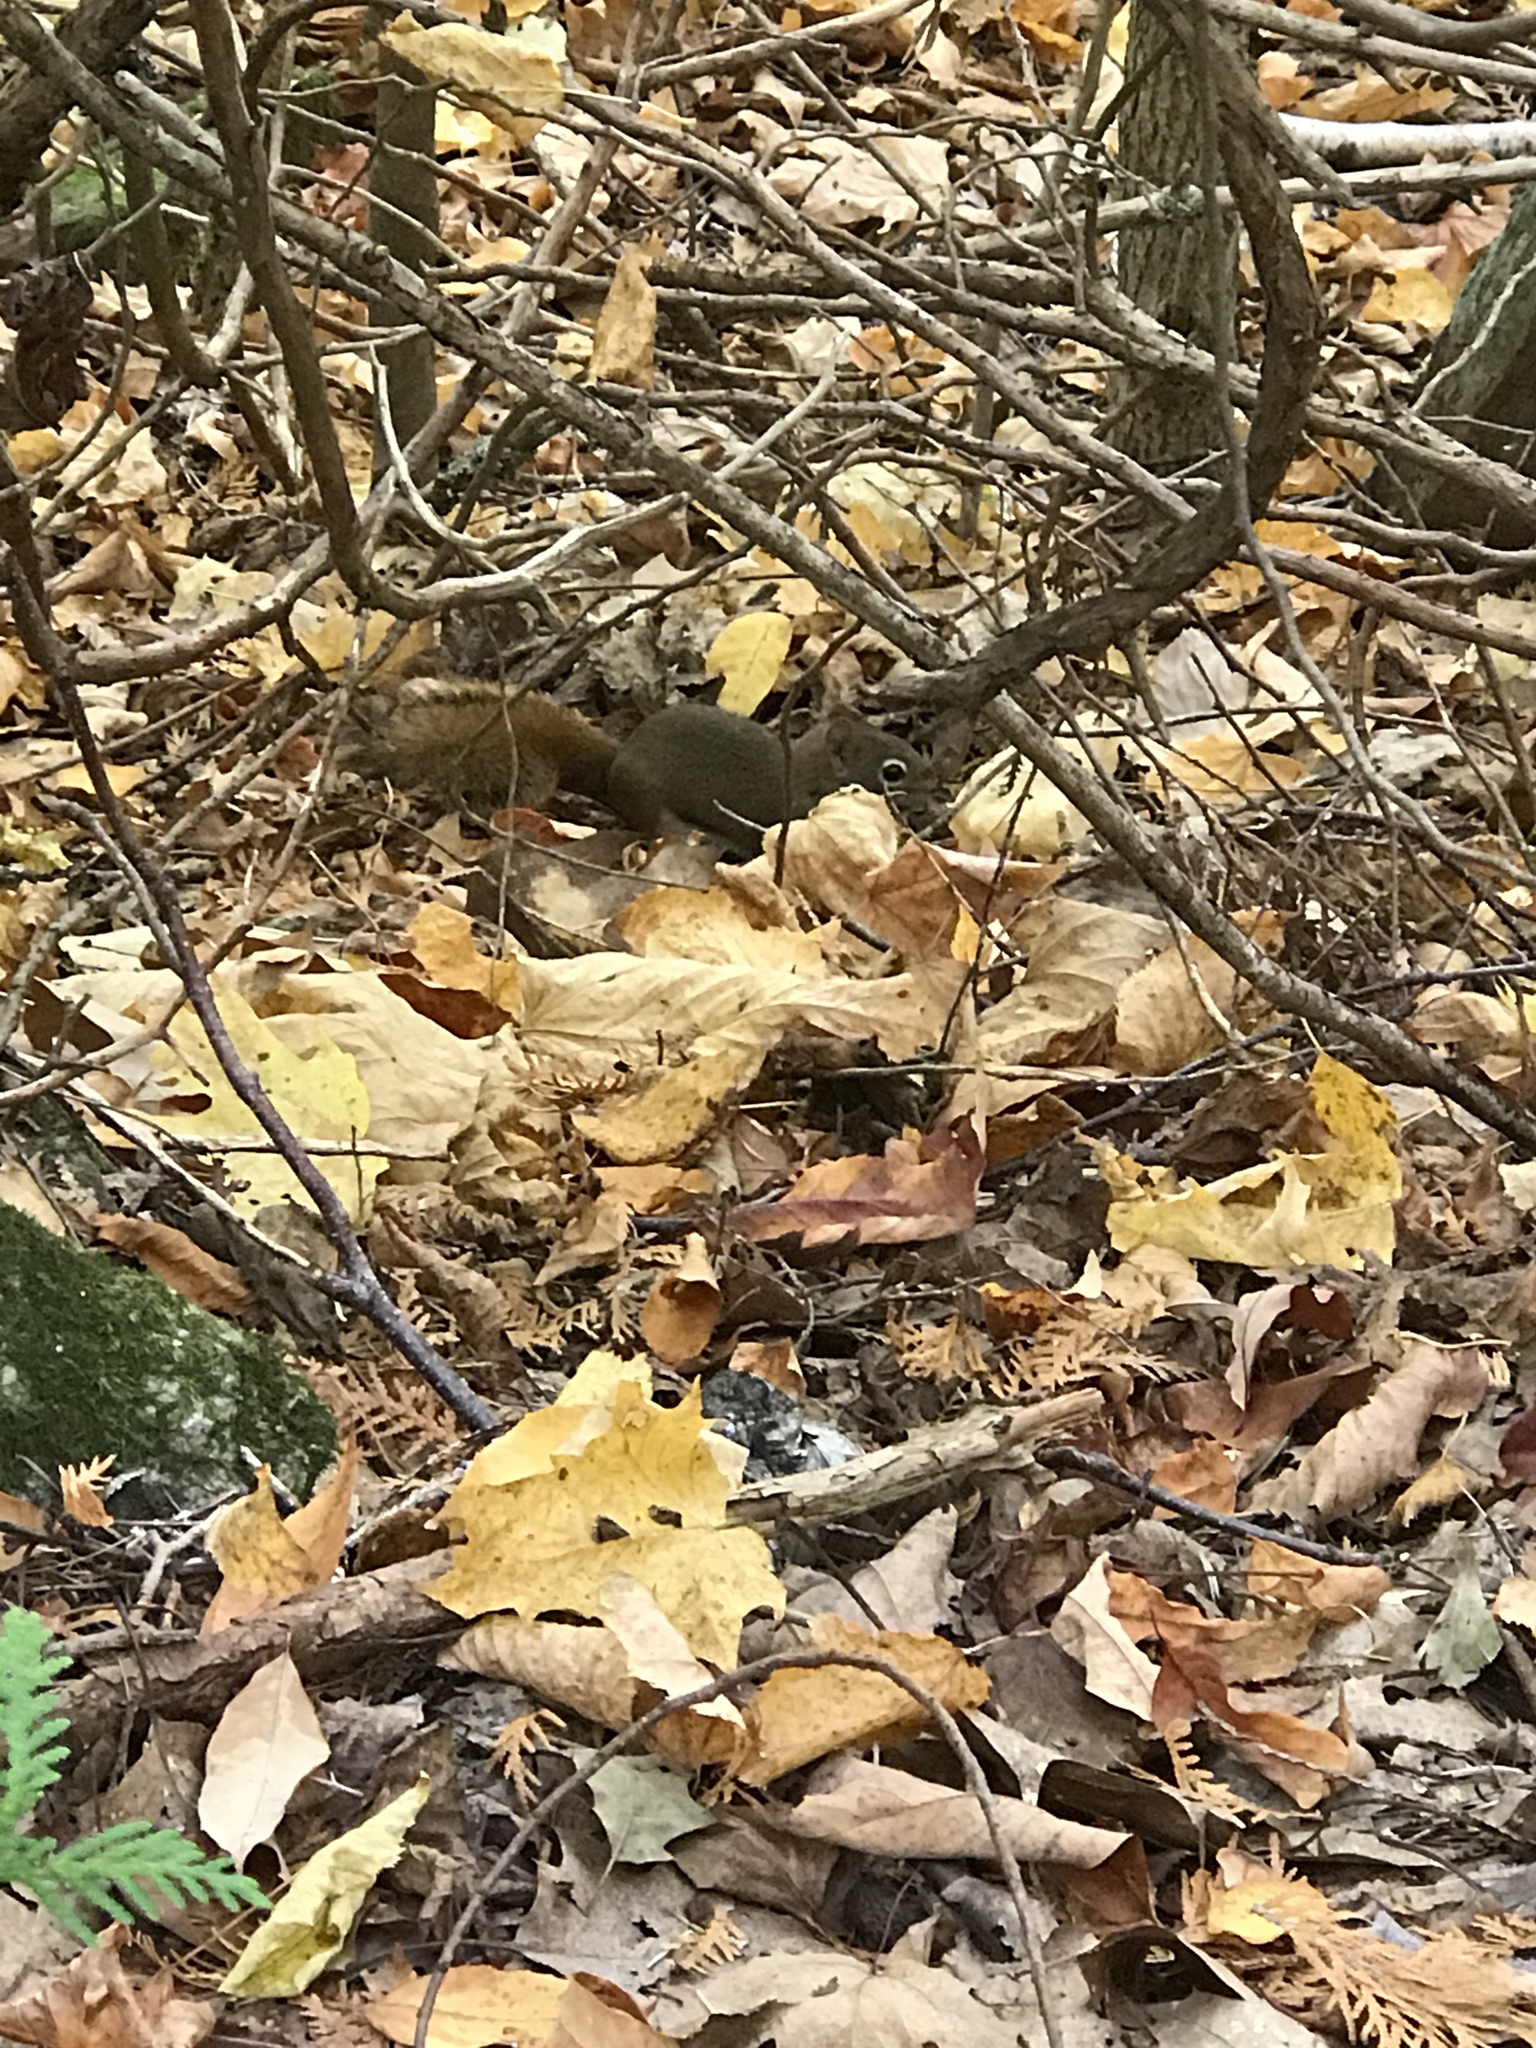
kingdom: Animalia
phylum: Chordata
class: Mammalia
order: Rodentia
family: Sciuridae
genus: Tamiasciurus
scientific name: Tamiasciurus hudsonicus
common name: Red squirrel
